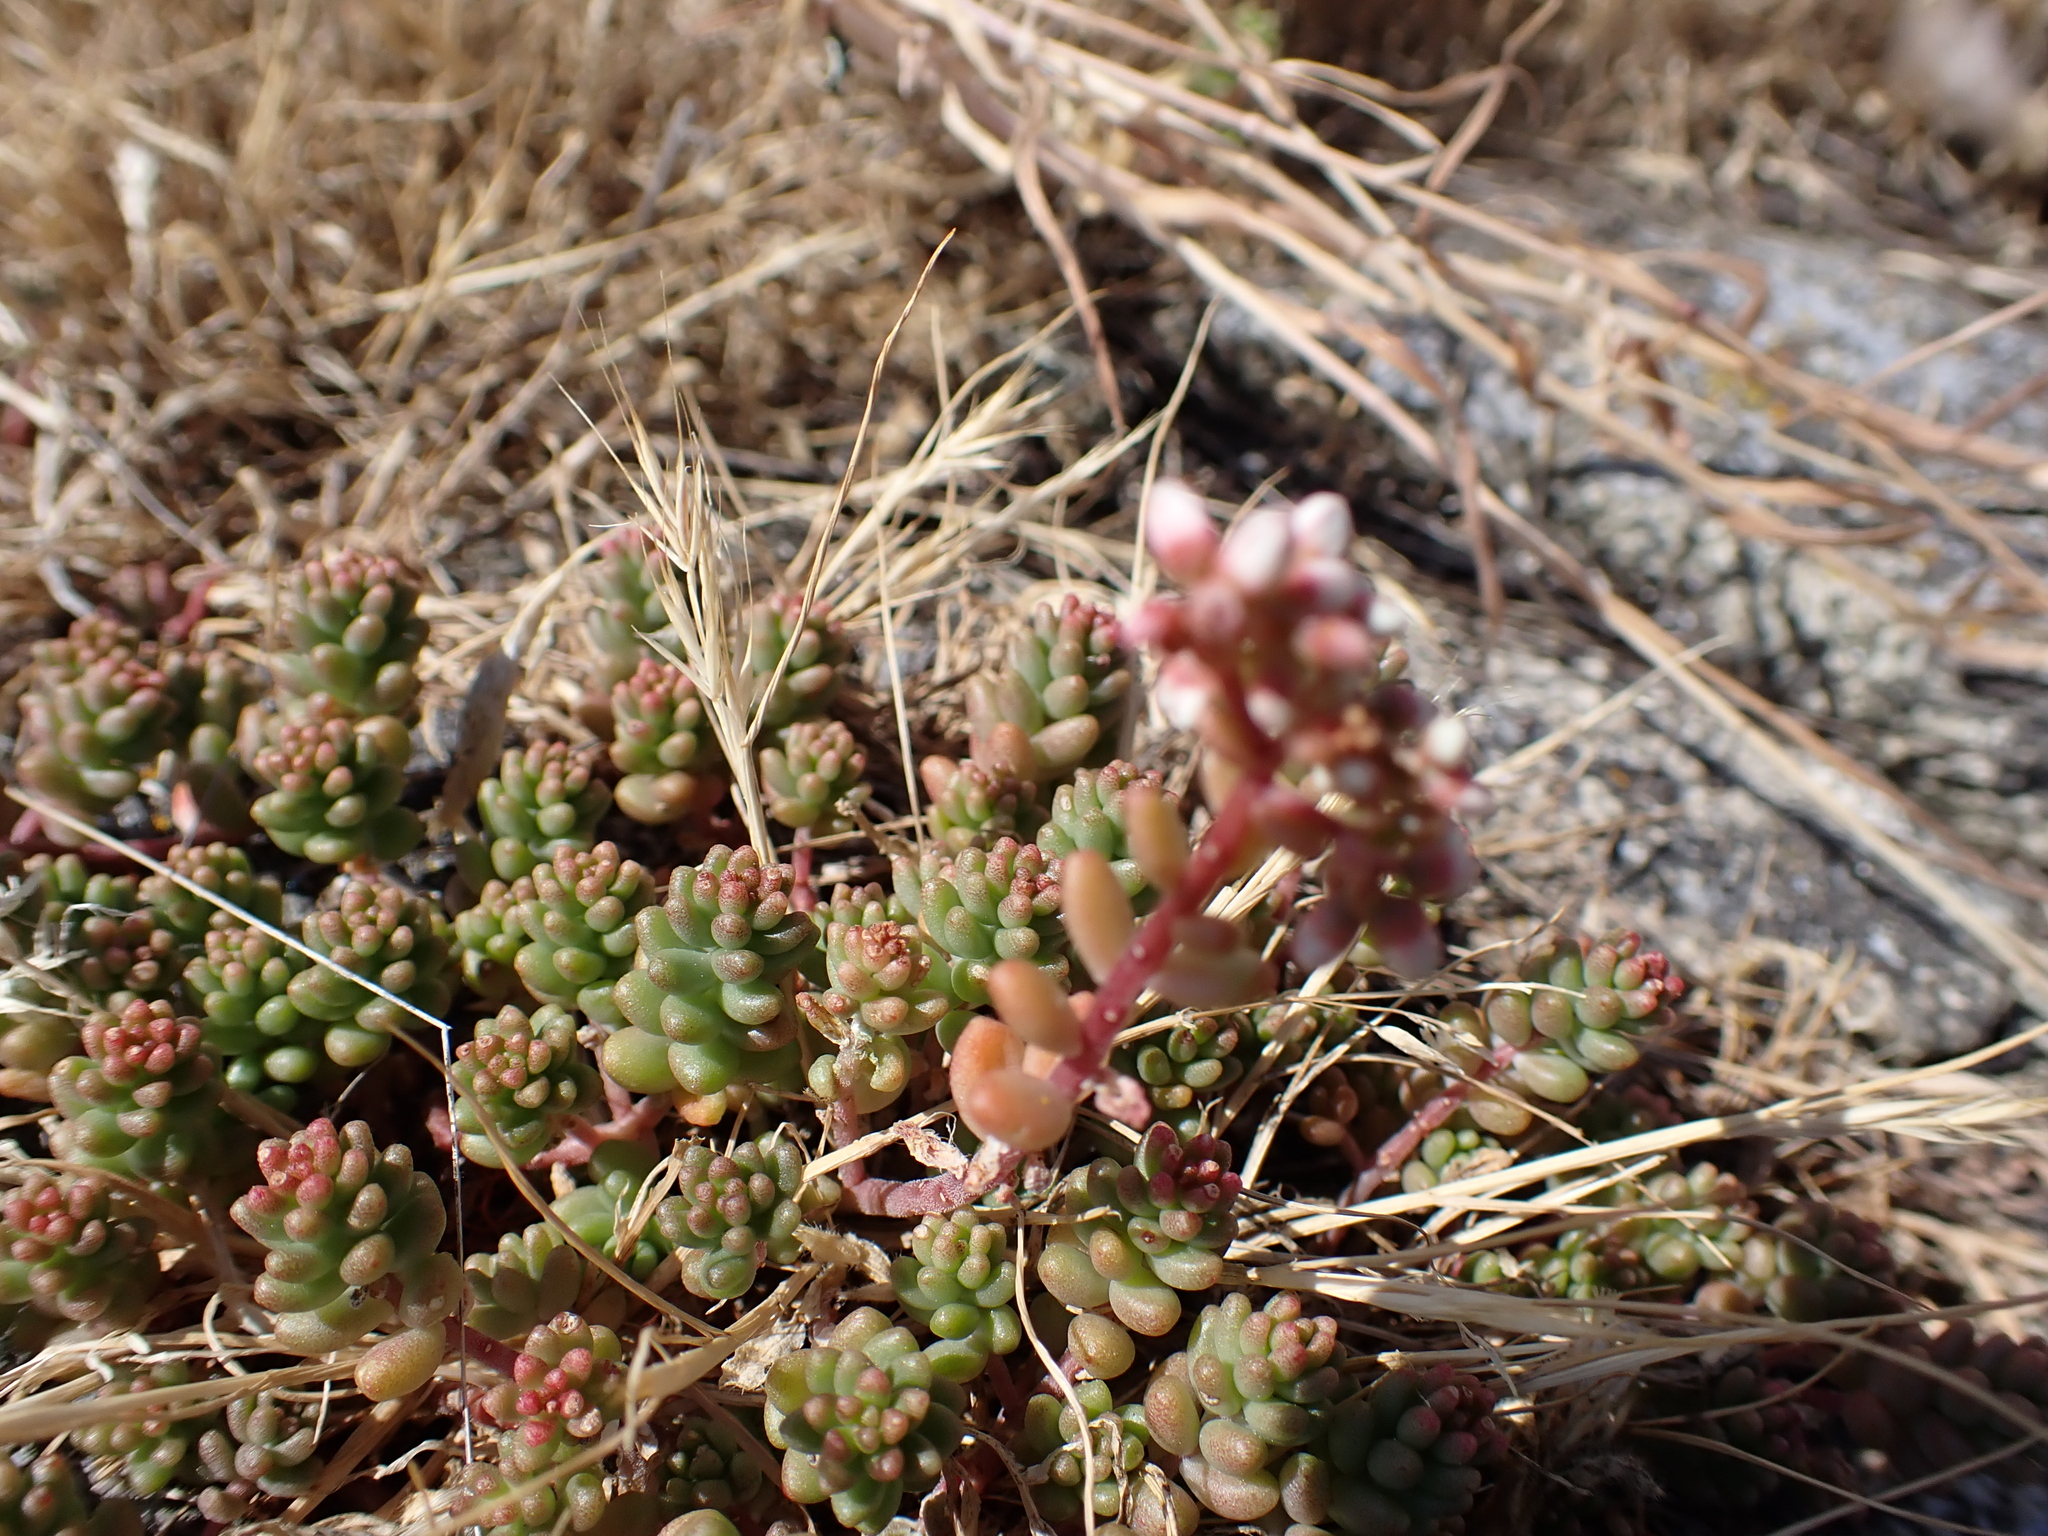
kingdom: Plantae
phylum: Tracheophyta
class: Magnoliopsida
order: Saxifragales
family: Crassulaceae
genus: Sedum
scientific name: Sedum album
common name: White stonecrop
